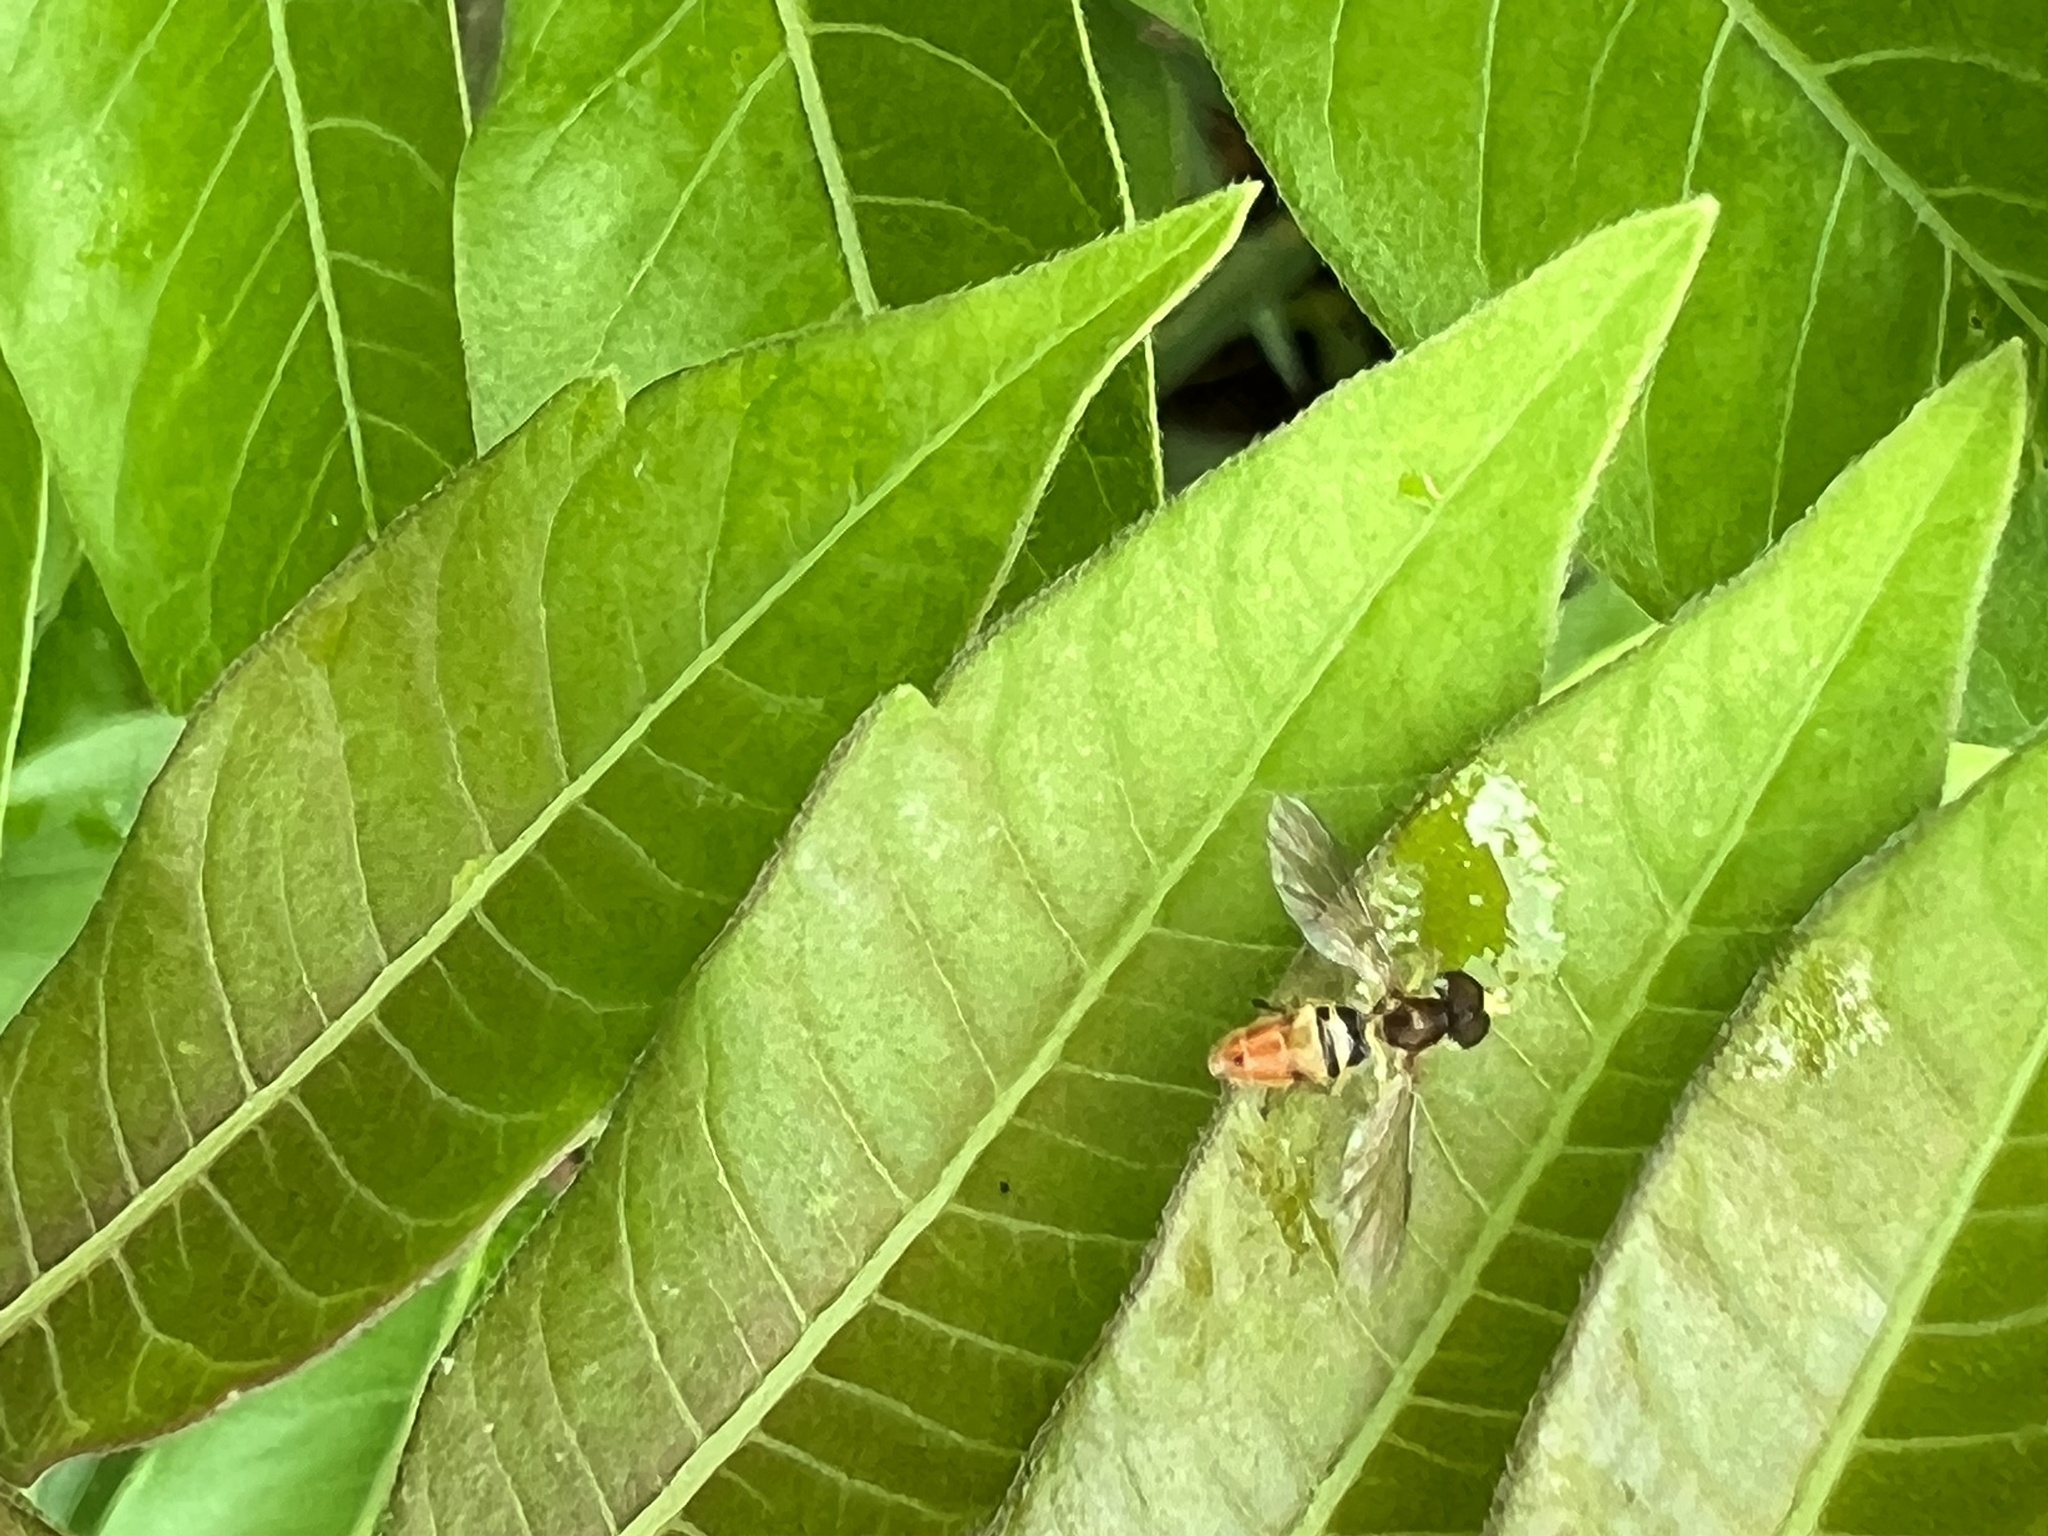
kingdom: Animalia
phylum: Arthropoda
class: Insecta
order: Diptera
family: Syrphidae
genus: Toxomerus
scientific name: Toxomerus marginatus
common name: Syrphid fly
